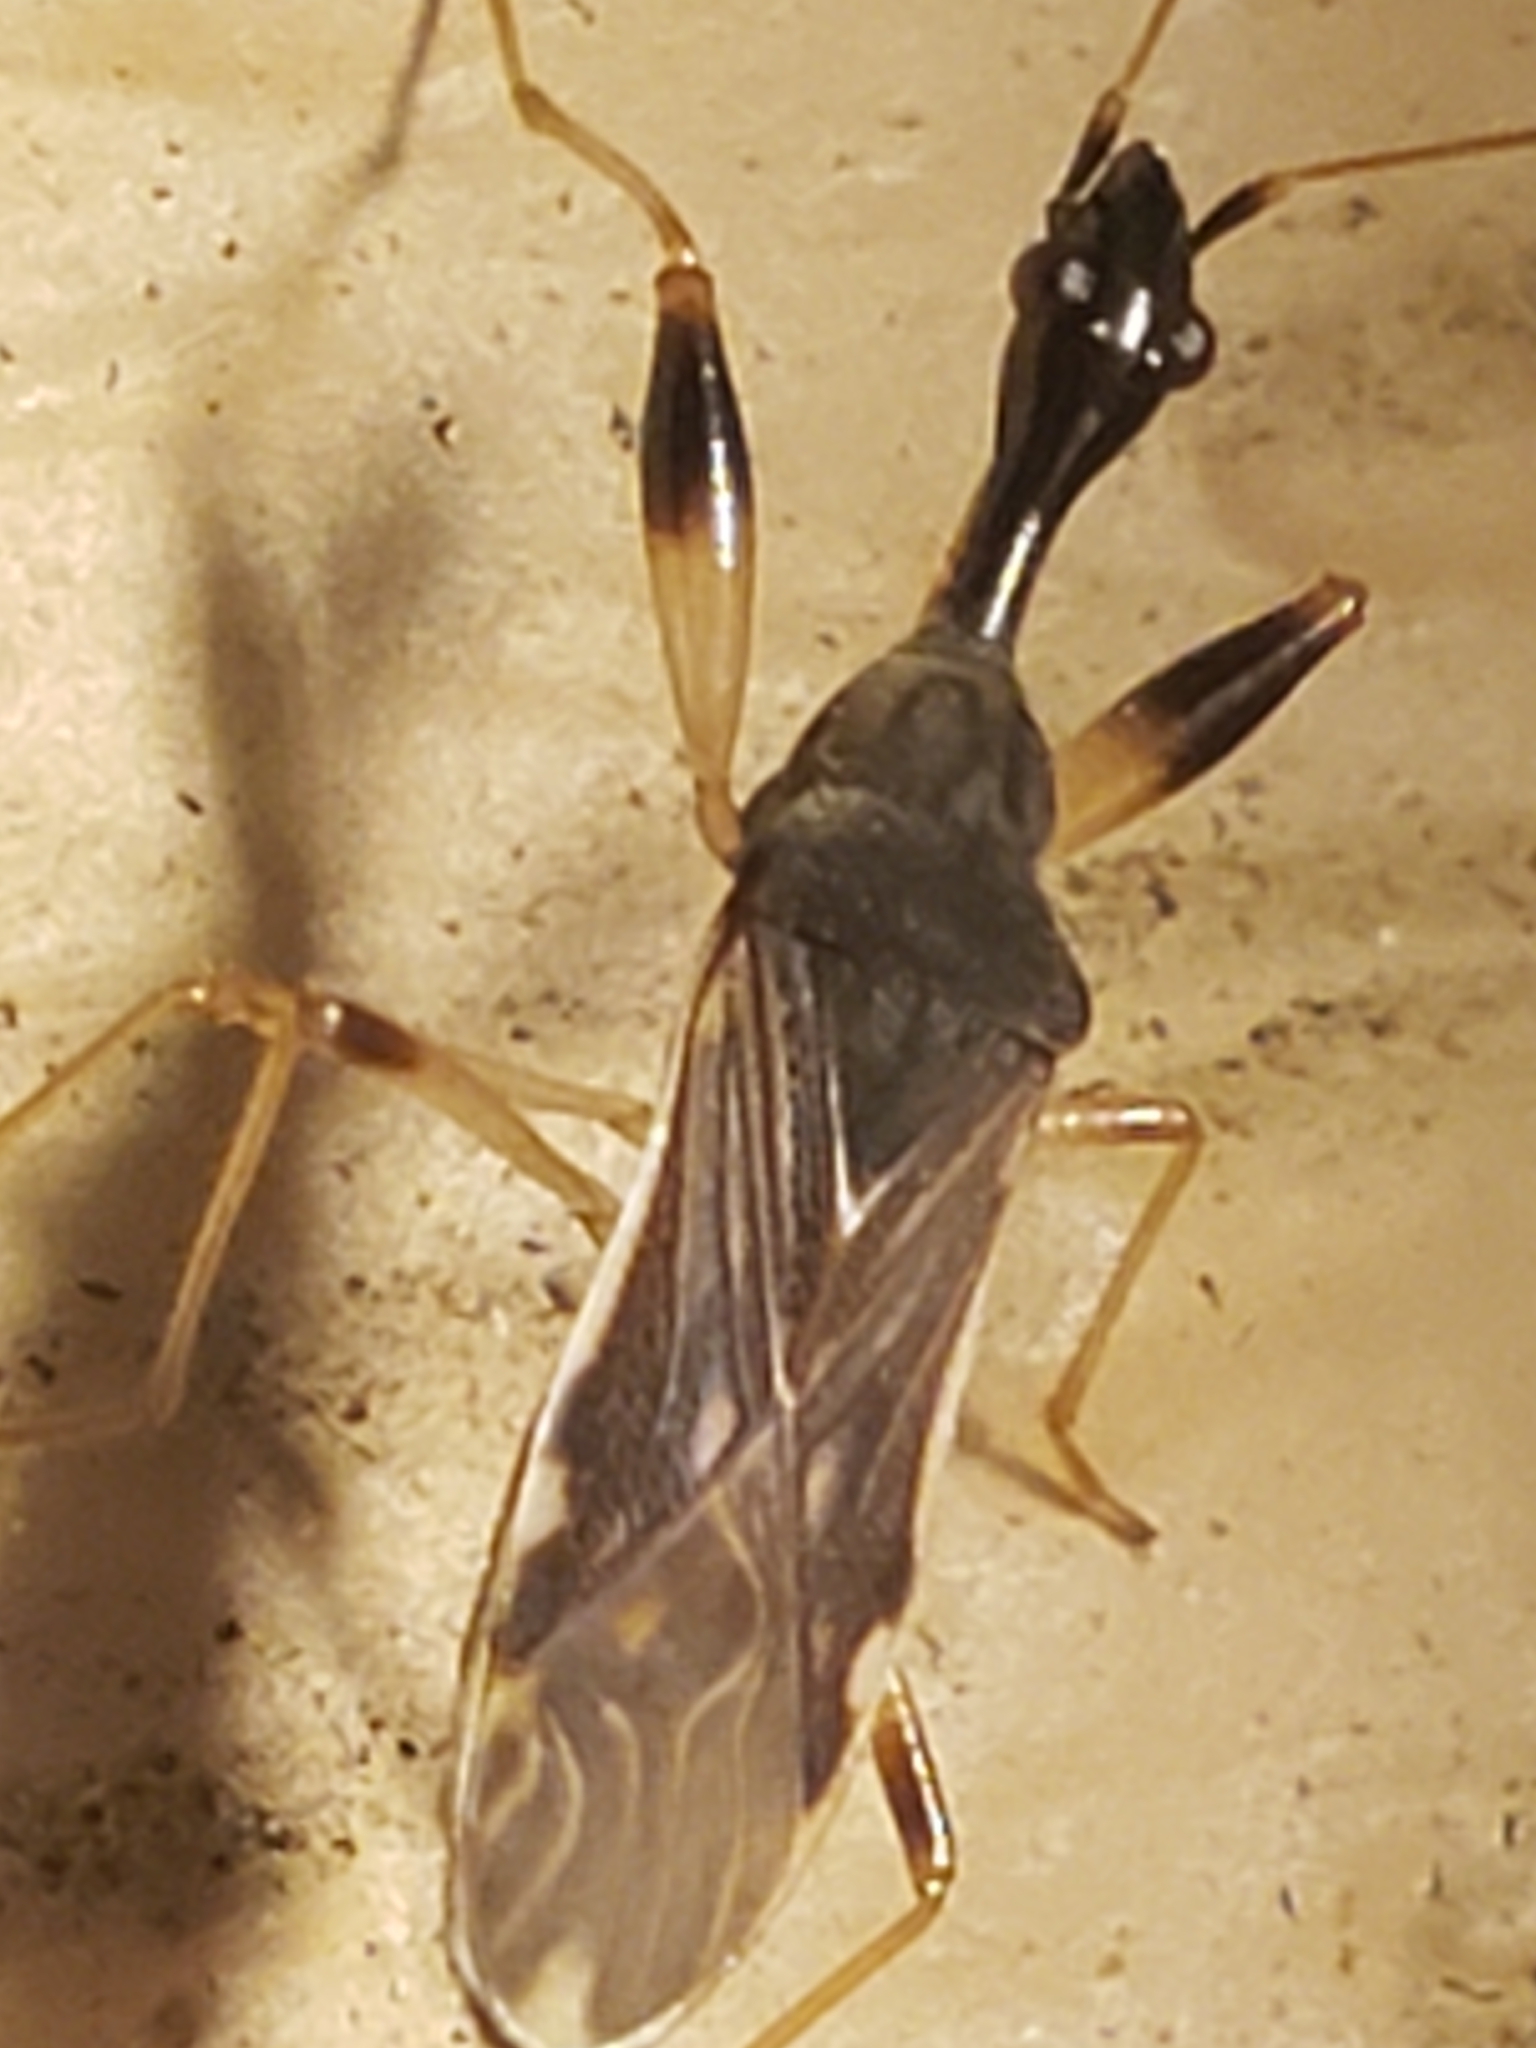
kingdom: Animalia
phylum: Arthropoda
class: Insecta
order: Hemiptera
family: Rhyparochromidae
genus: Myodocha
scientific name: Myodocha serripes
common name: Long-necked seed bug
